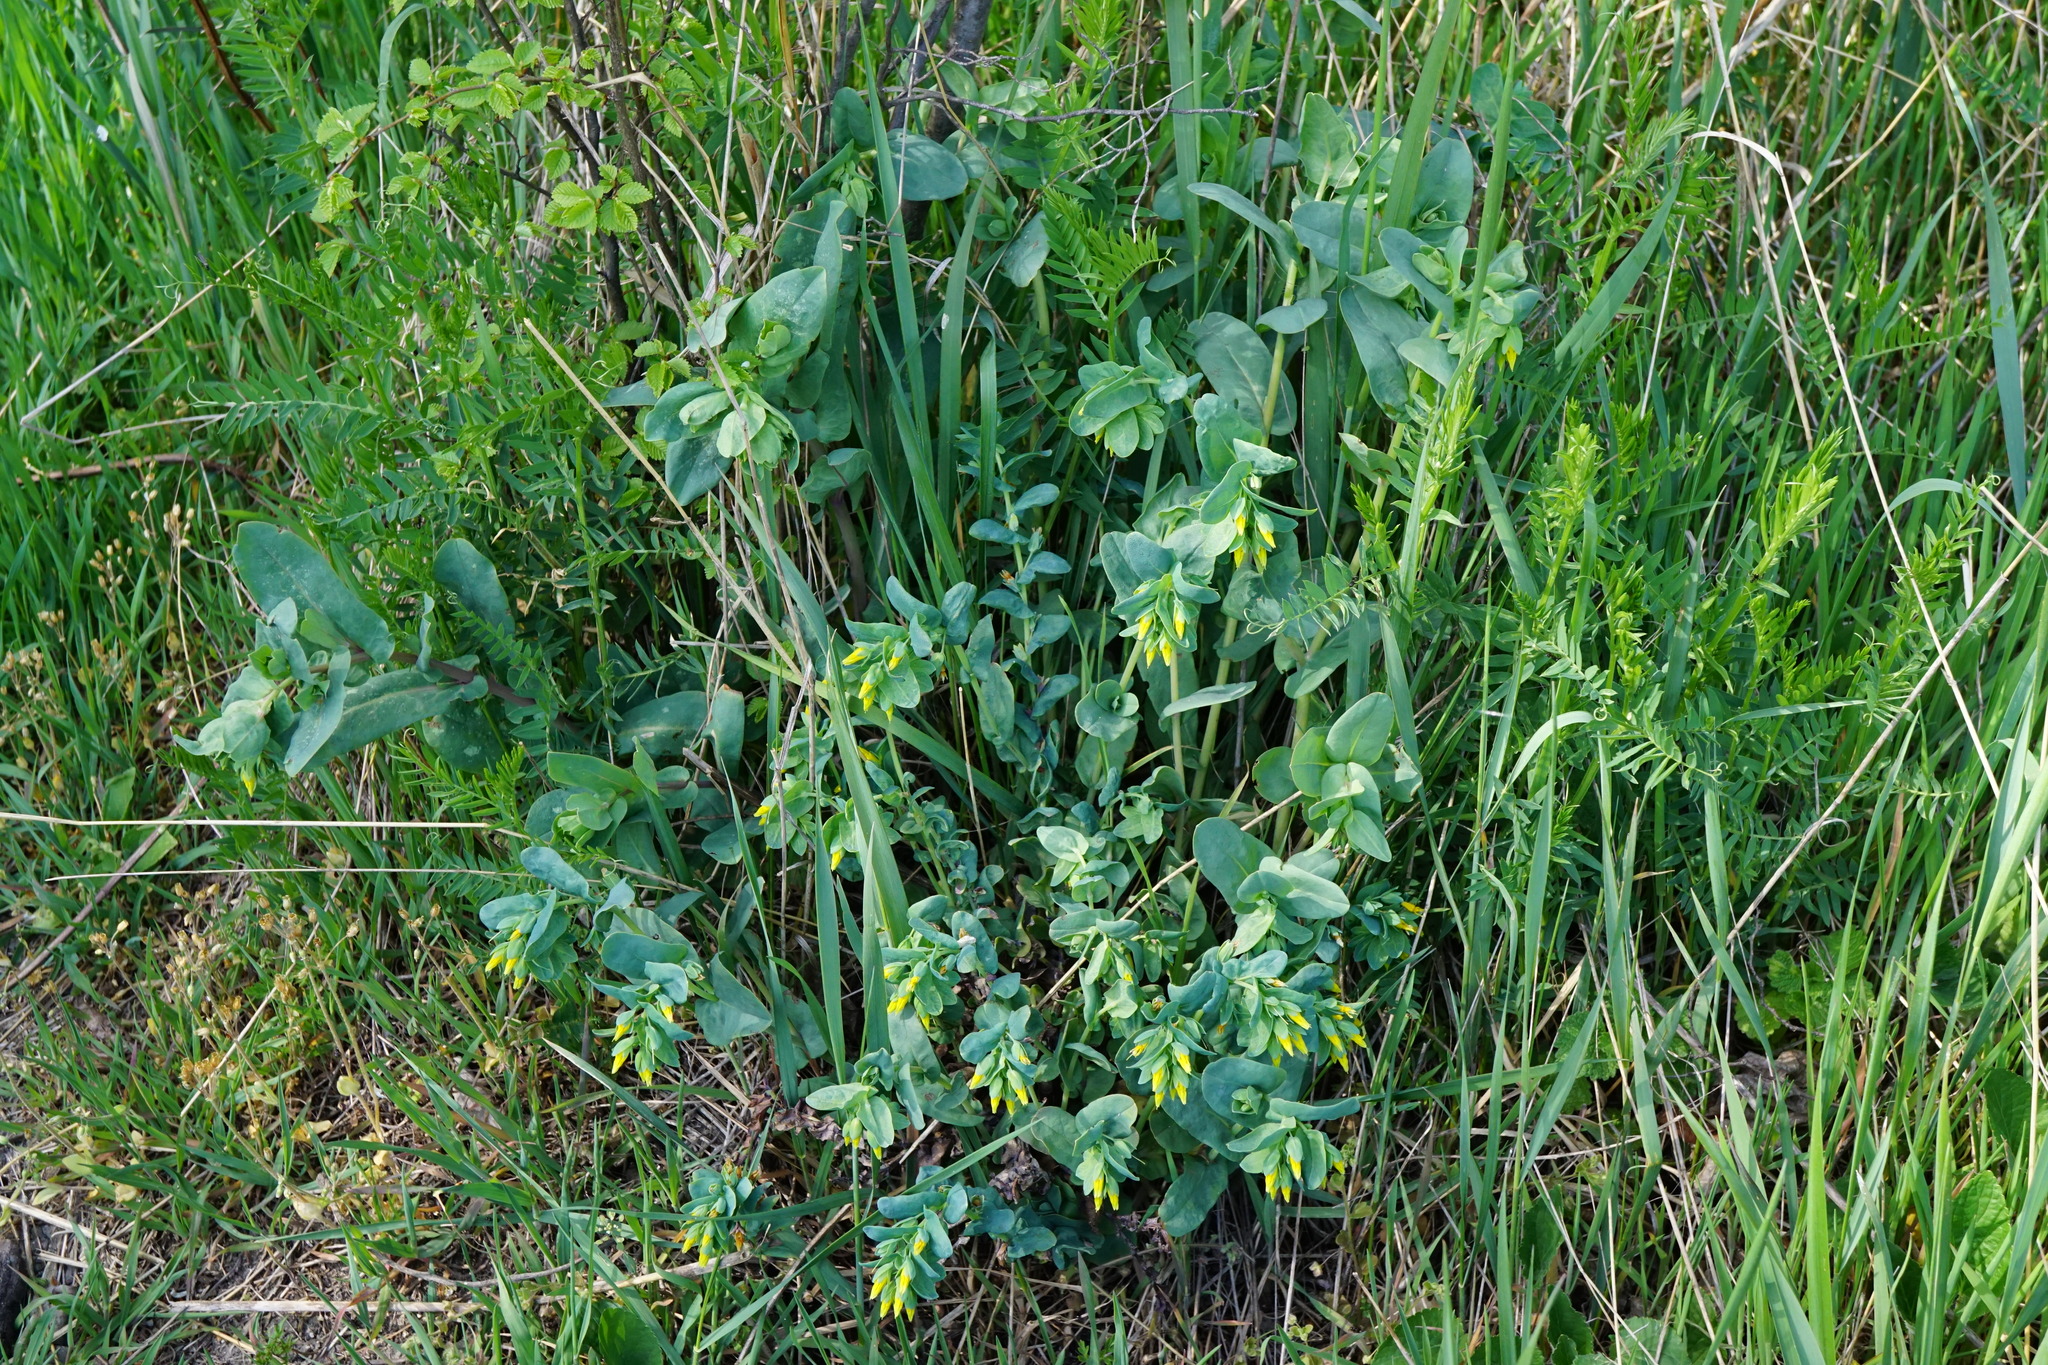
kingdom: Plantae
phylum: Tracheophyta
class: Magnoliopsida
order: Boraginales
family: Boraginaceae
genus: Cerinthe
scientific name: Cerinthe minor
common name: Lesser honeywort
